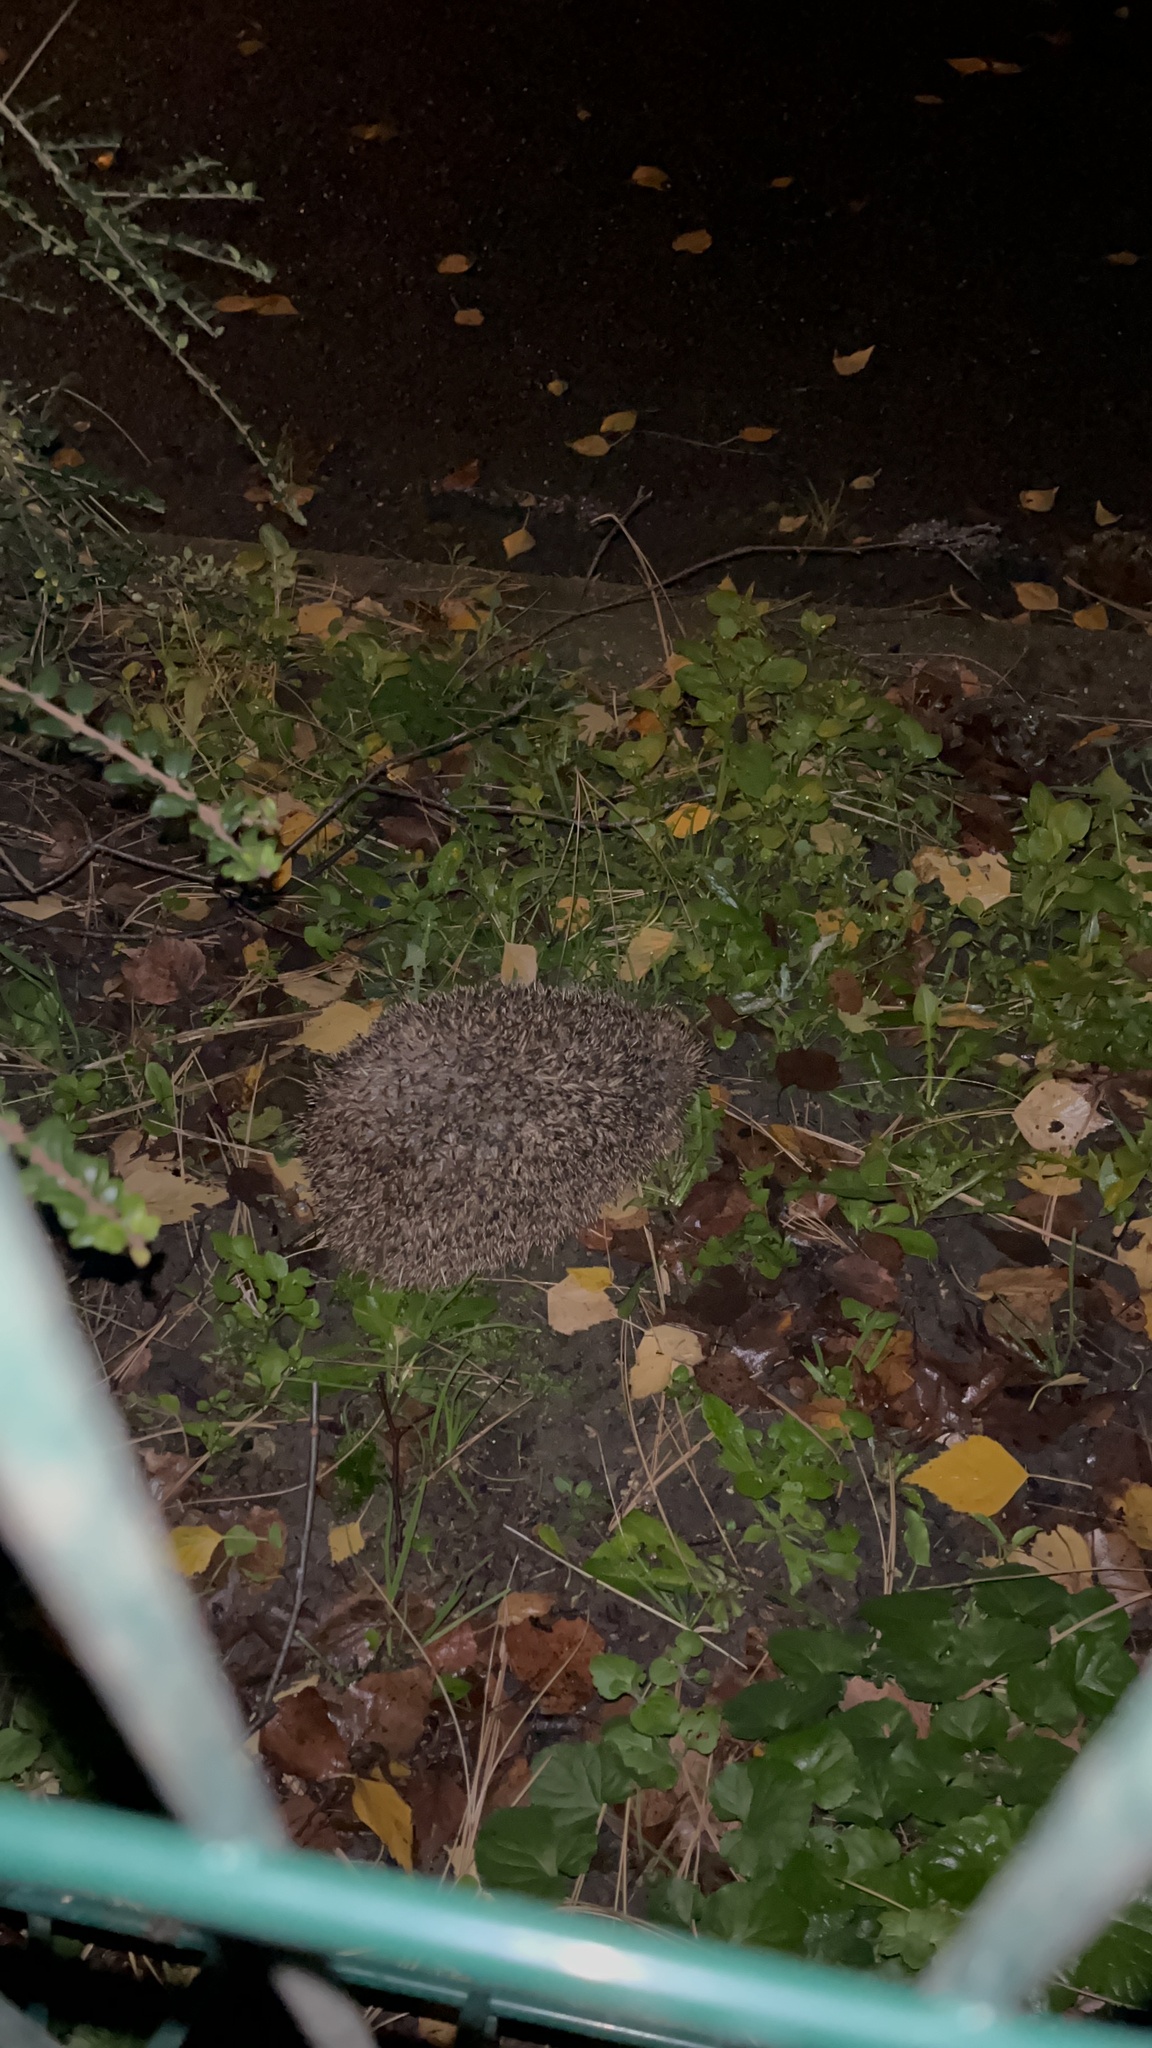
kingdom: Animalia
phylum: Chordata
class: Mammalia
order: Erinaceomorpha
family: Erinaceidae
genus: Erinaceus
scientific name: Erinaceus europaeus
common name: West european hedgehog
